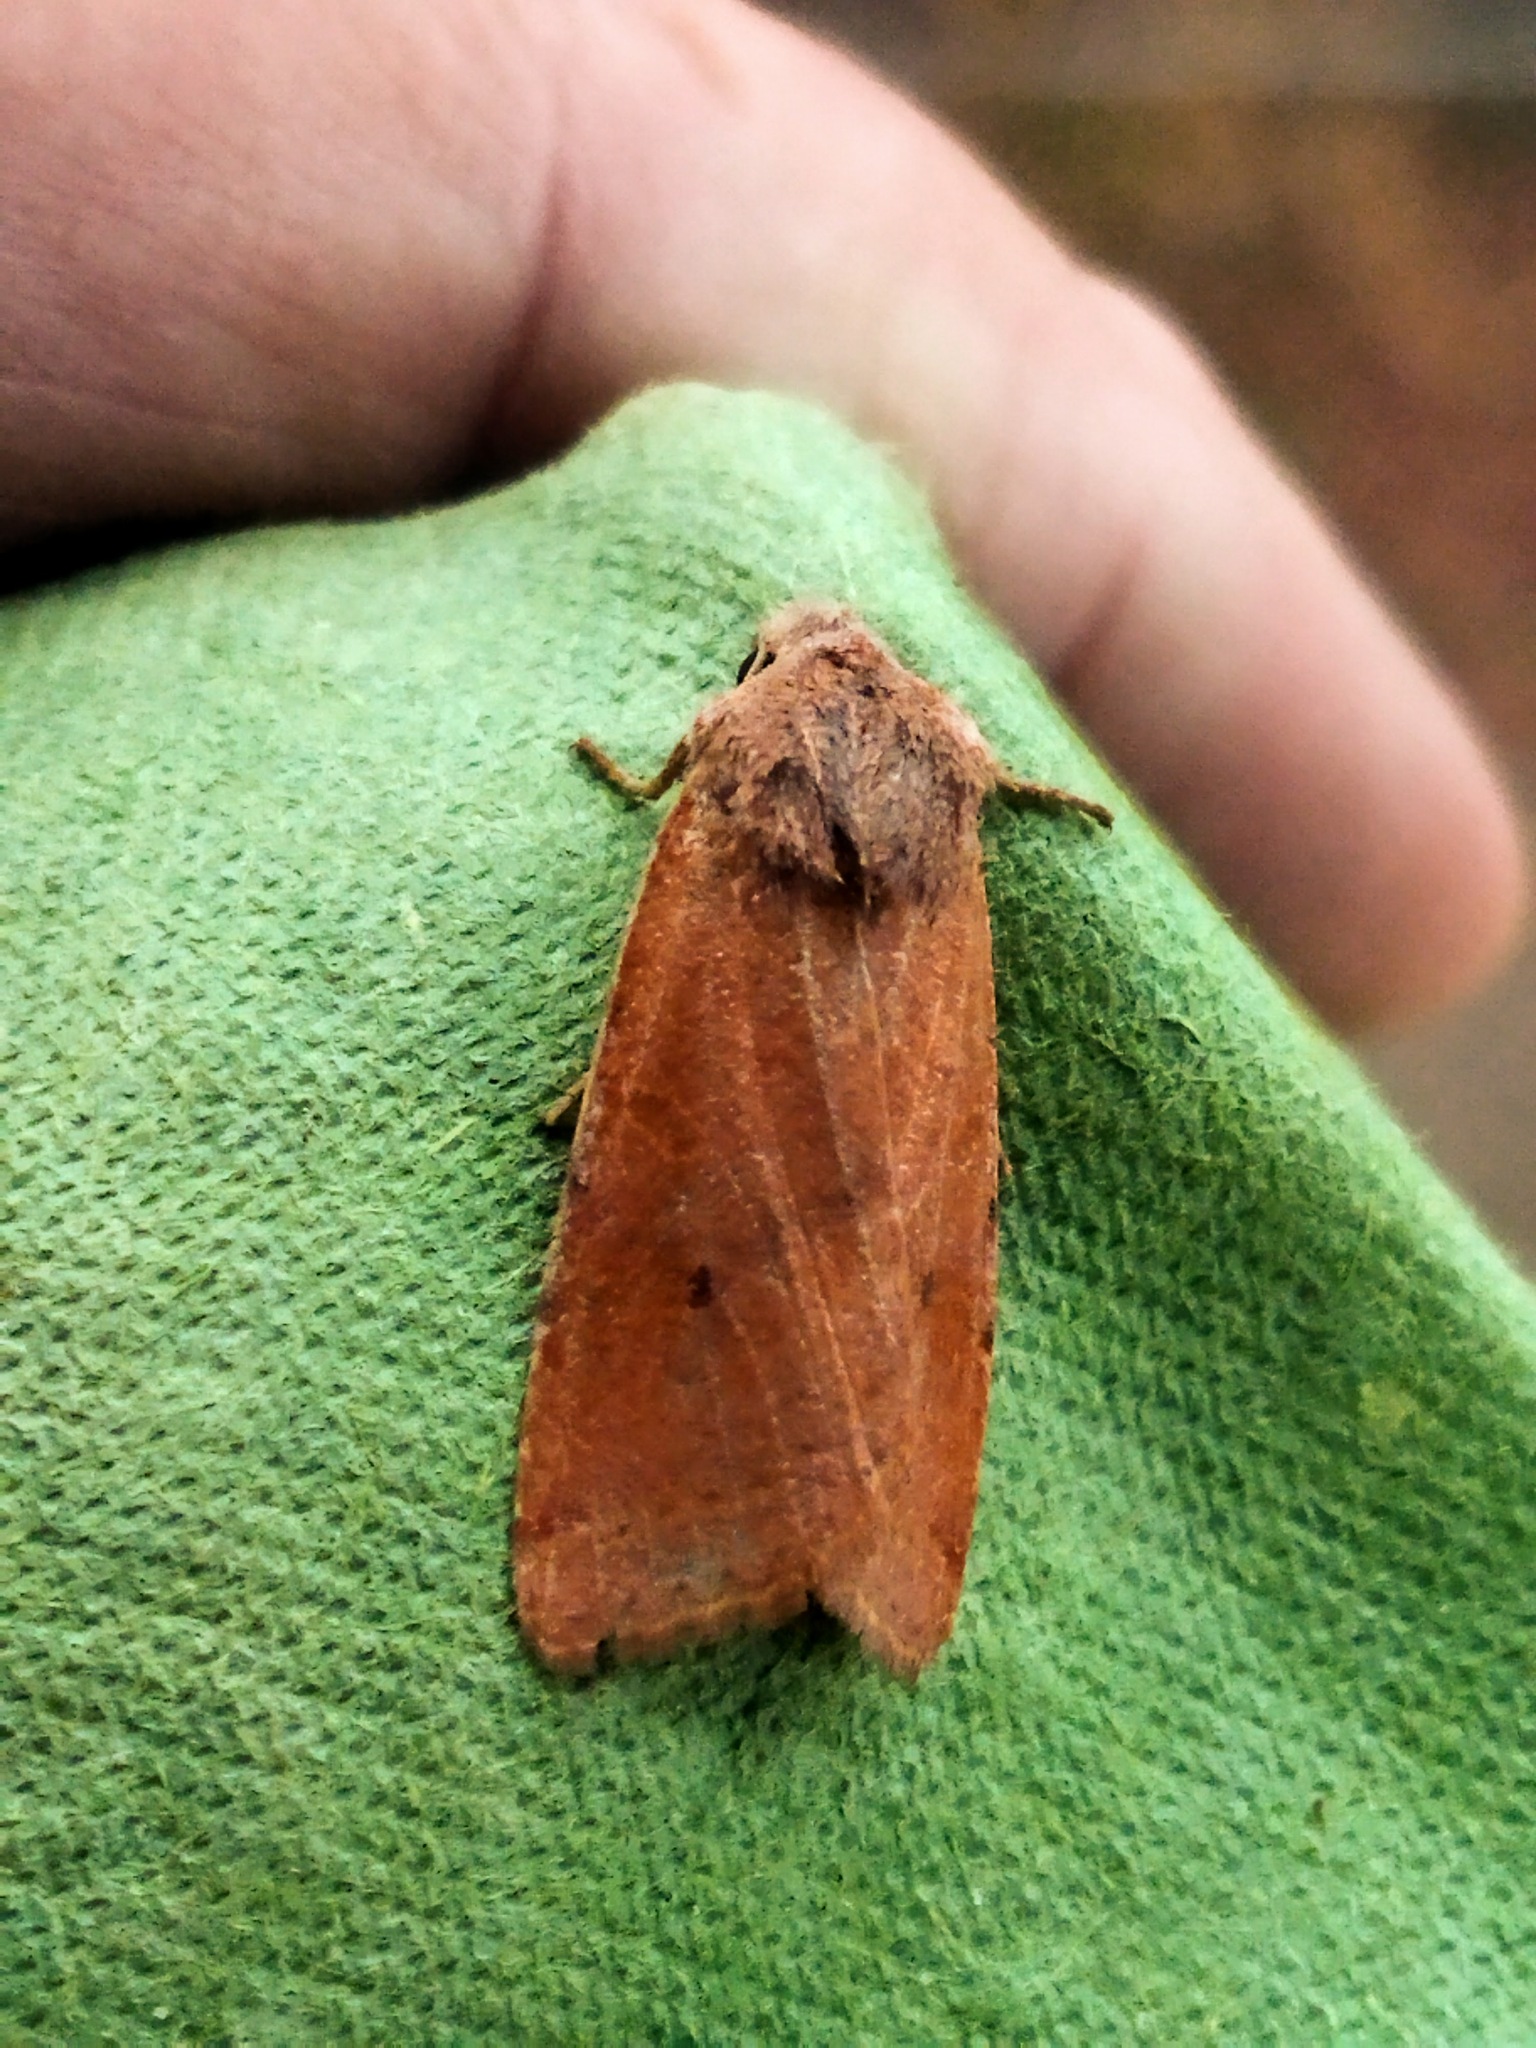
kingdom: Animalia
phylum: Arthropoda
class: Insecta
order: Lepidoptera
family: Noctuidae
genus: Agrochola
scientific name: Agrochola lychnidis
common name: Beaded chestnut
